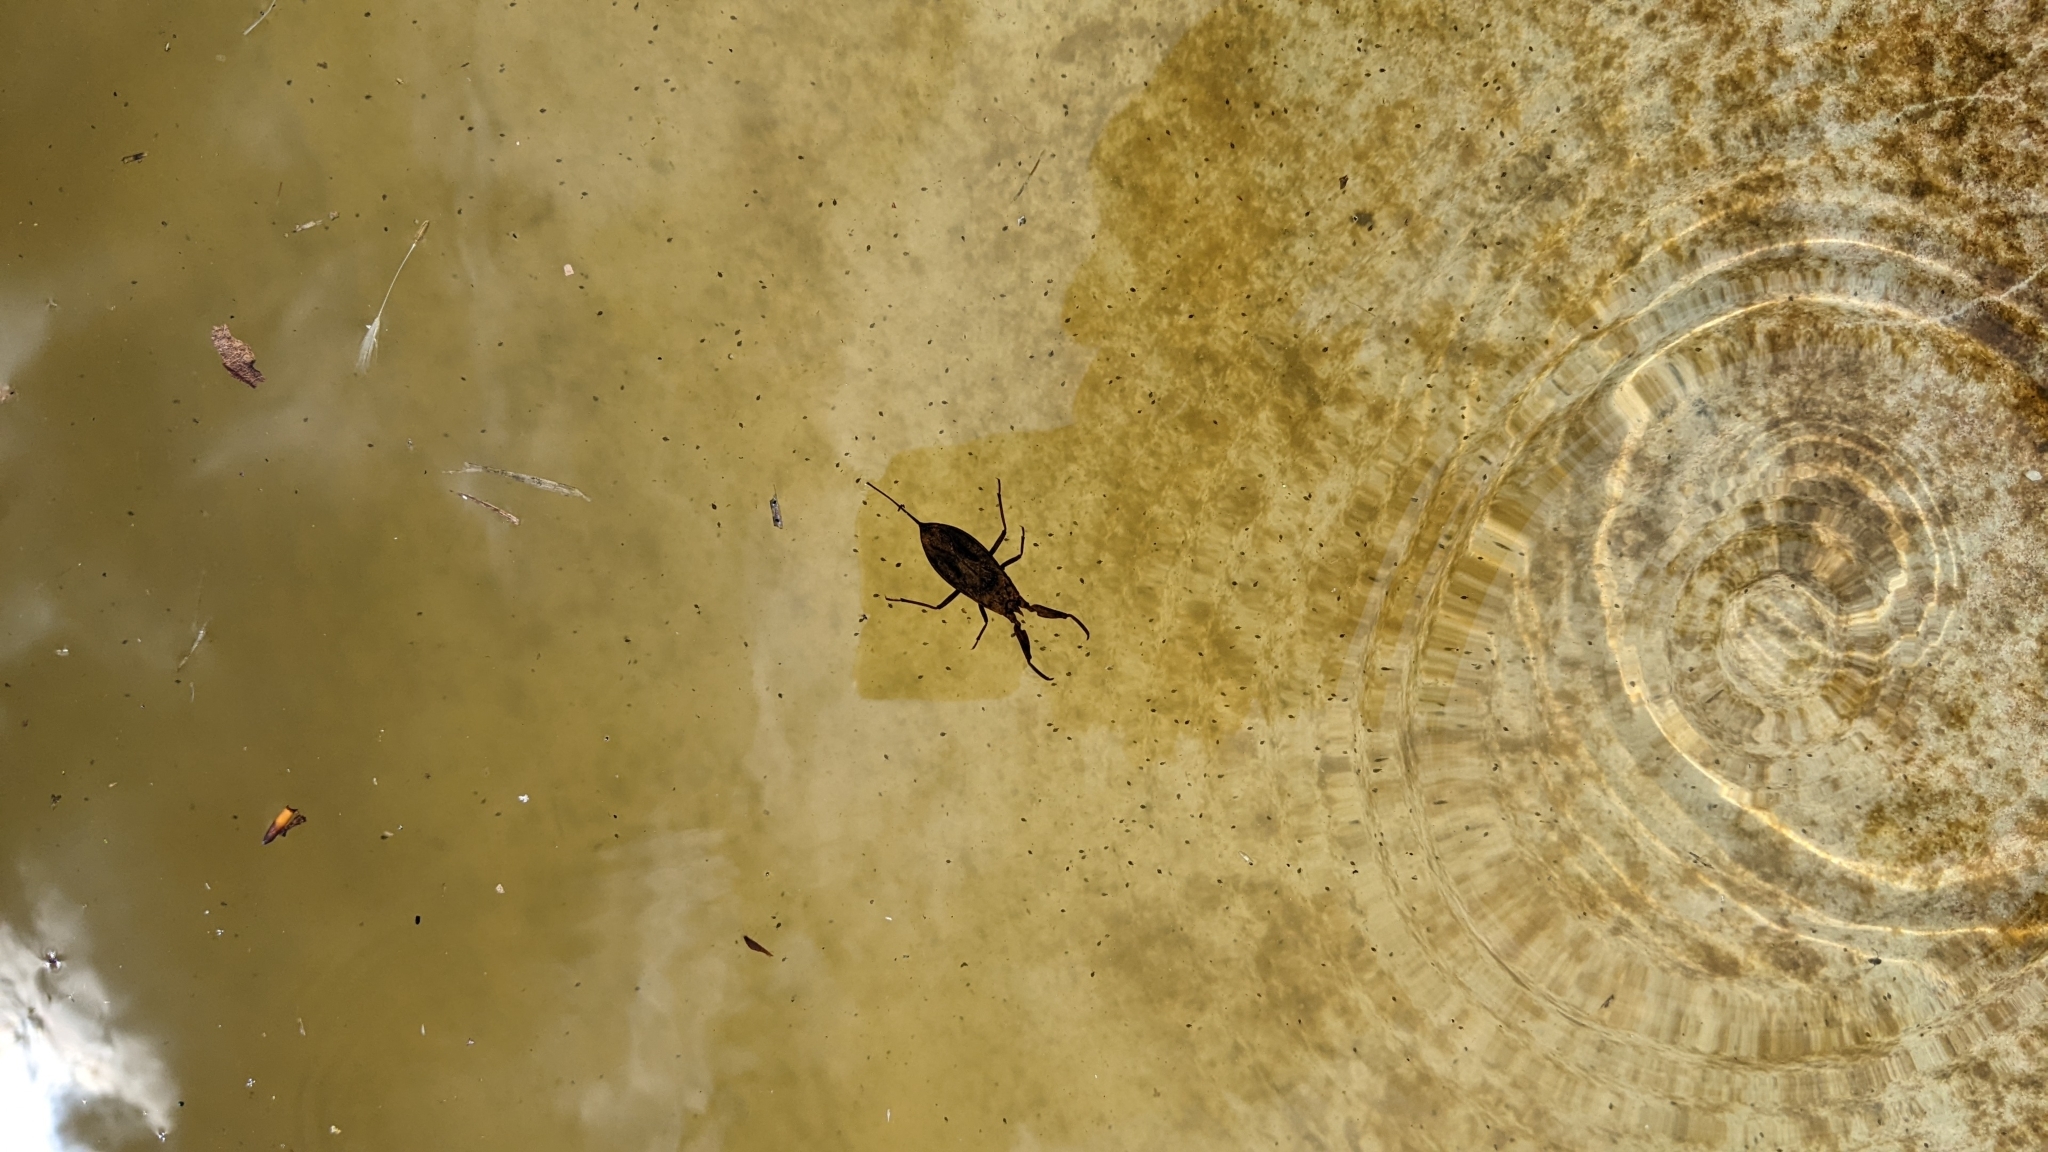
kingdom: Animalia
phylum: Arthropoda
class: Insecta
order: Hemiptera
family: Nepidae
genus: Nepa
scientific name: Nepa cinerea
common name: Water scorpion
